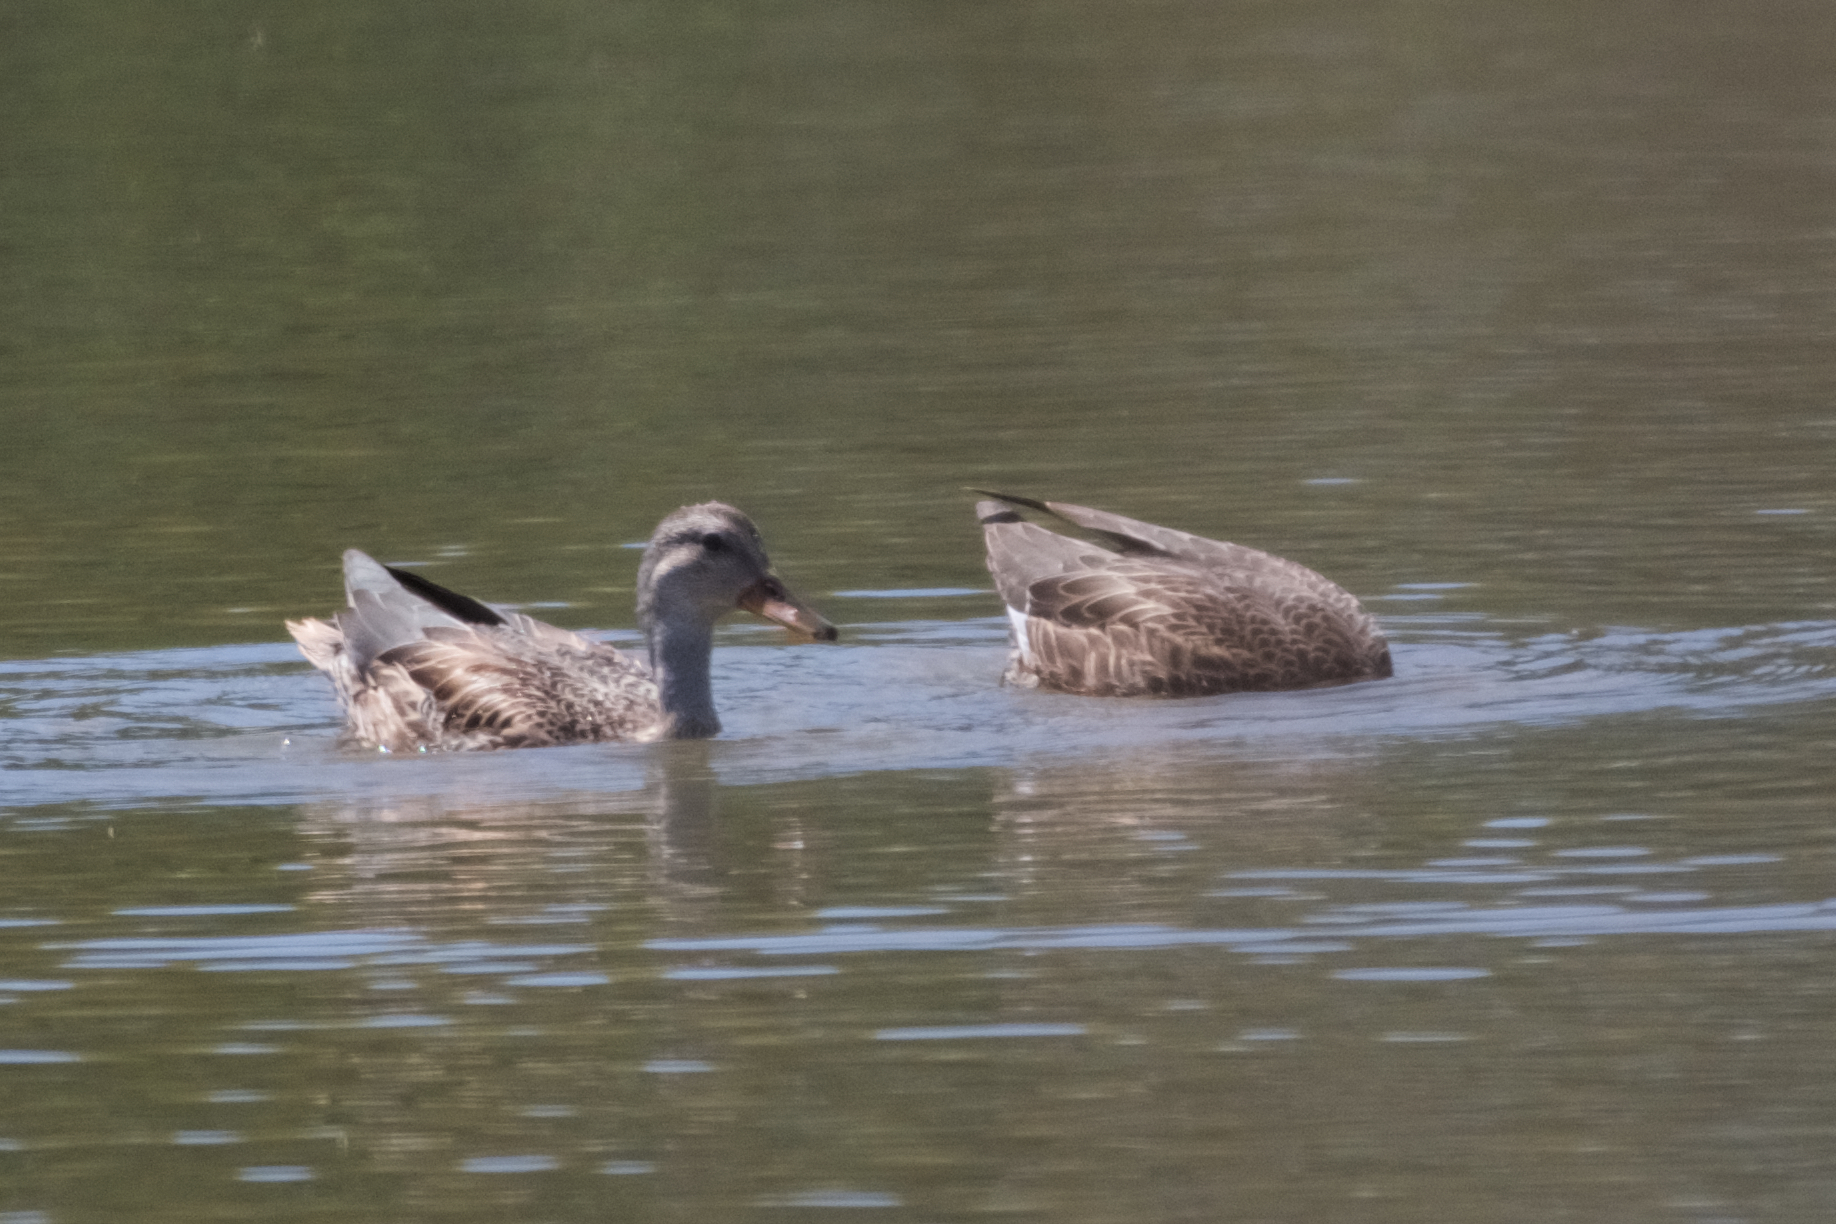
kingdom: Animalia
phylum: Chordata
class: Aves
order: Anseriformes
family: Anatidae
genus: Anas
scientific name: Anas platyrhynchos
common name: Mallard
